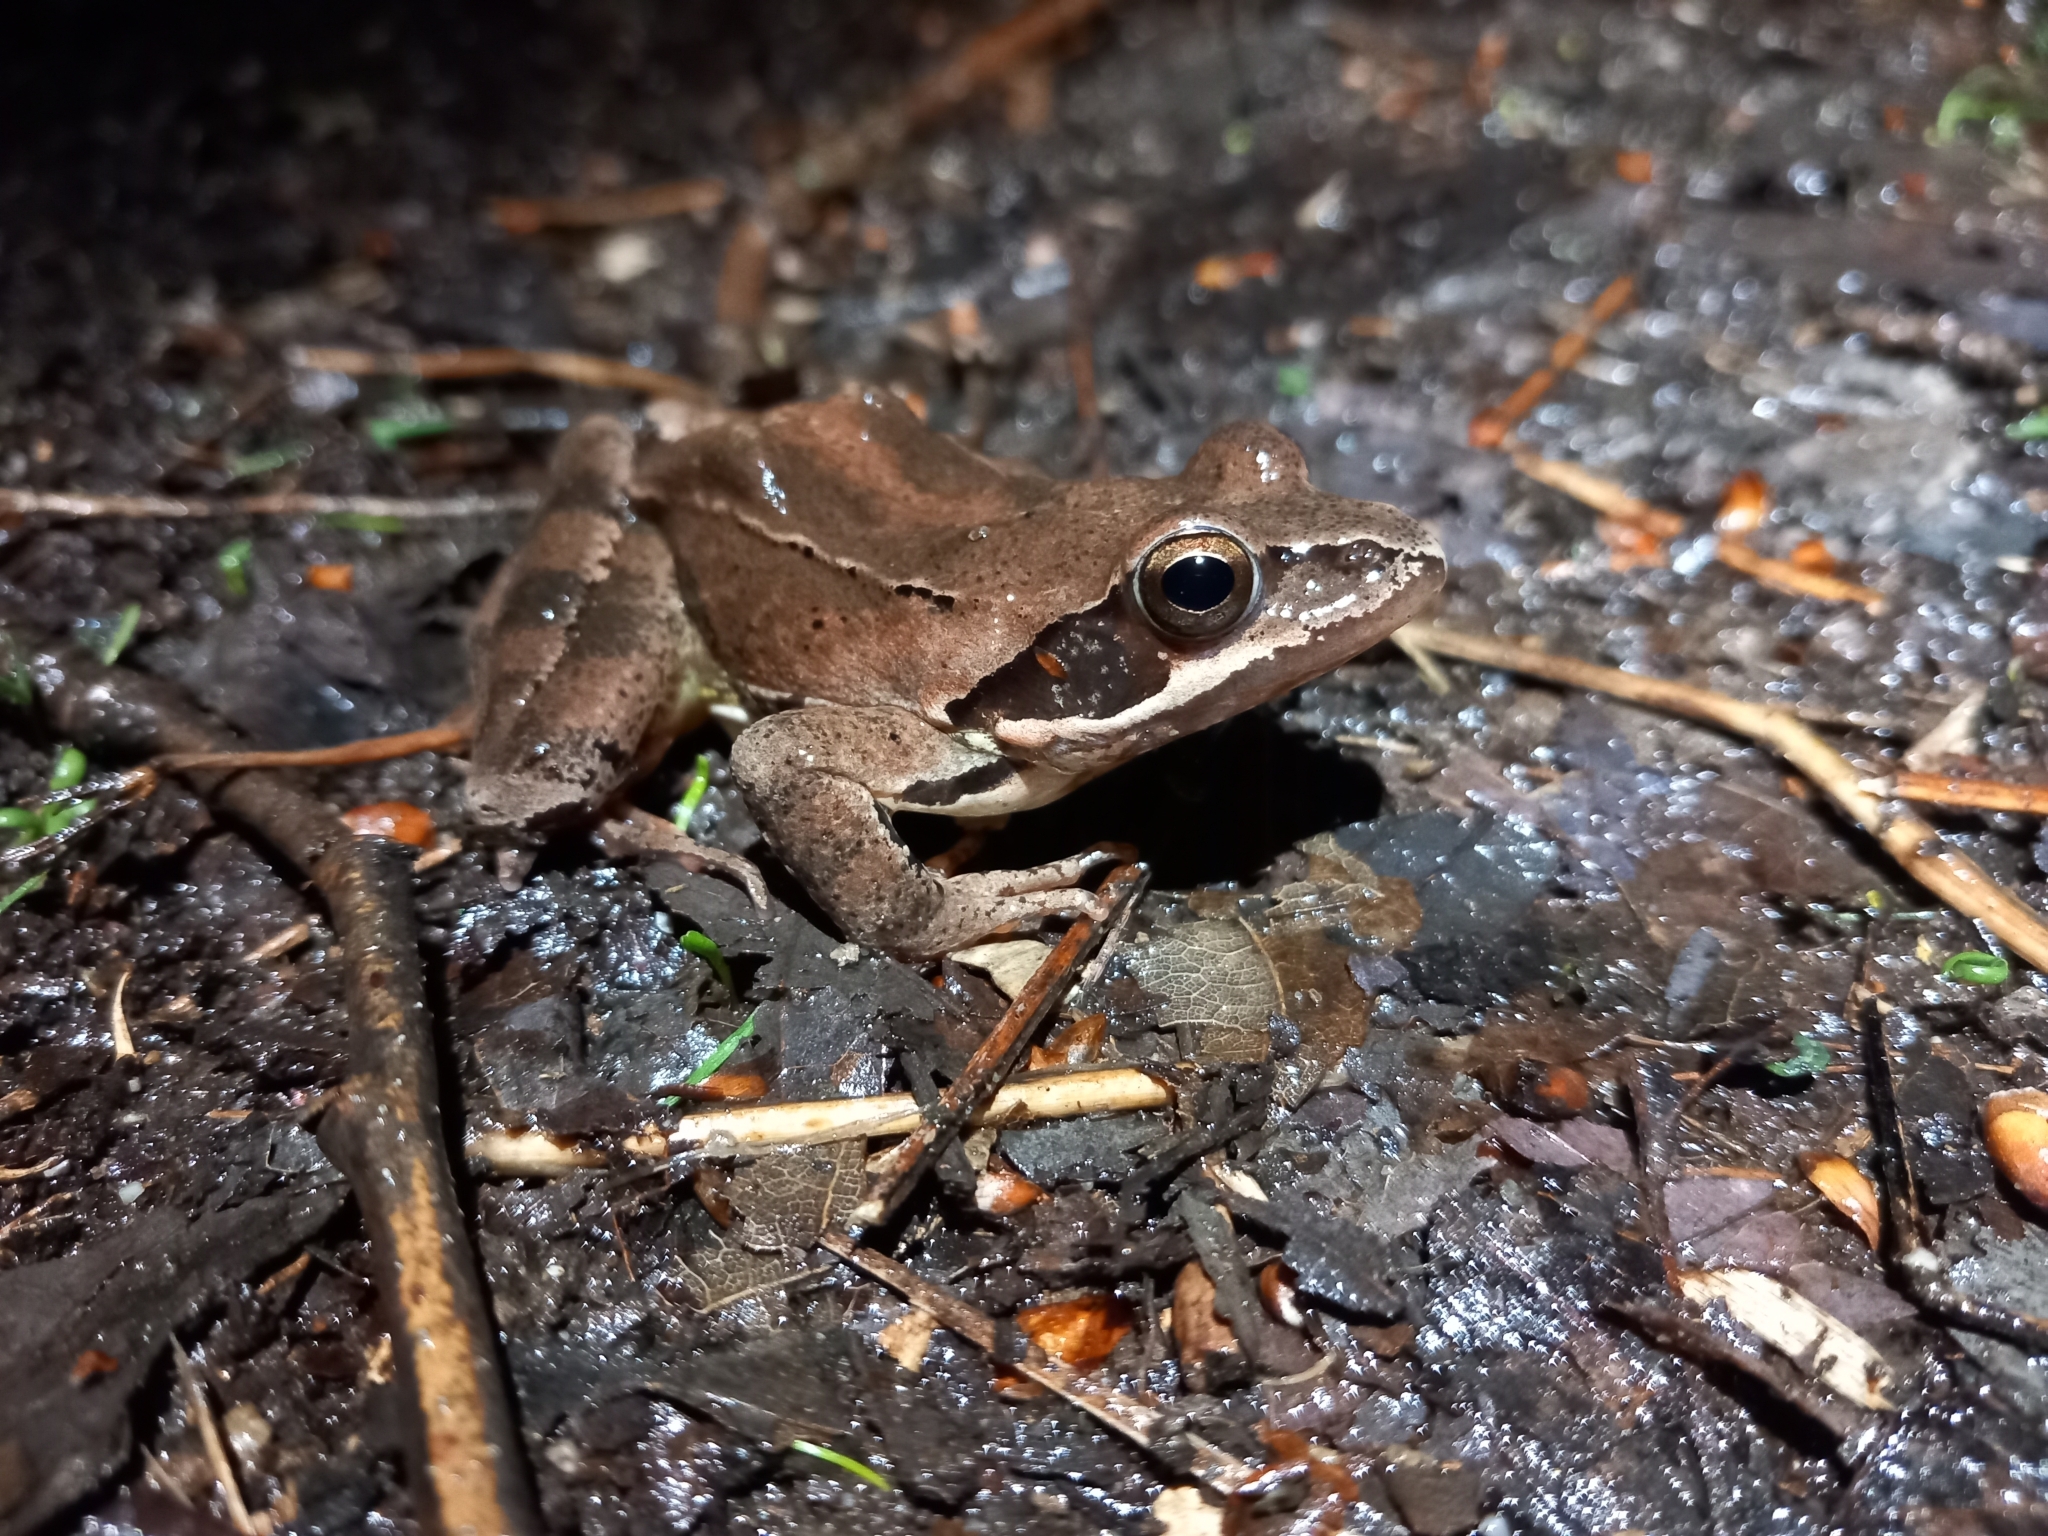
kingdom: Animalia
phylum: Chordata
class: Amphibia
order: Anura
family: Ranidae
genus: Rana
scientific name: Rana dalmatina
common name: Agile frog
